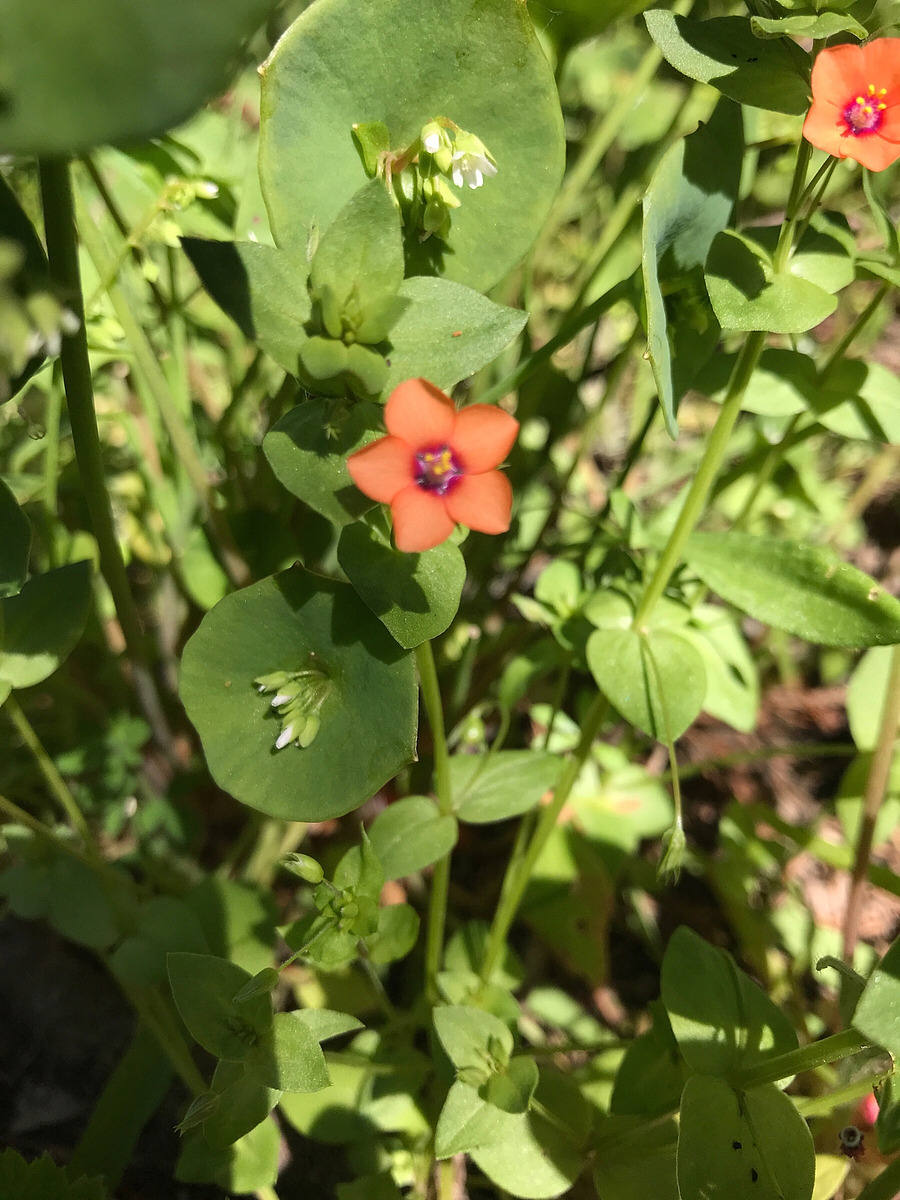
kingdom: Plantae
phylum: Tracheophyta
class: Magnoliopsida
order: Ericales
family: Primulaceae
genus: Lysimachia
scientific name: Lysimachia arvensis
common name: Scarlet pimpernel
